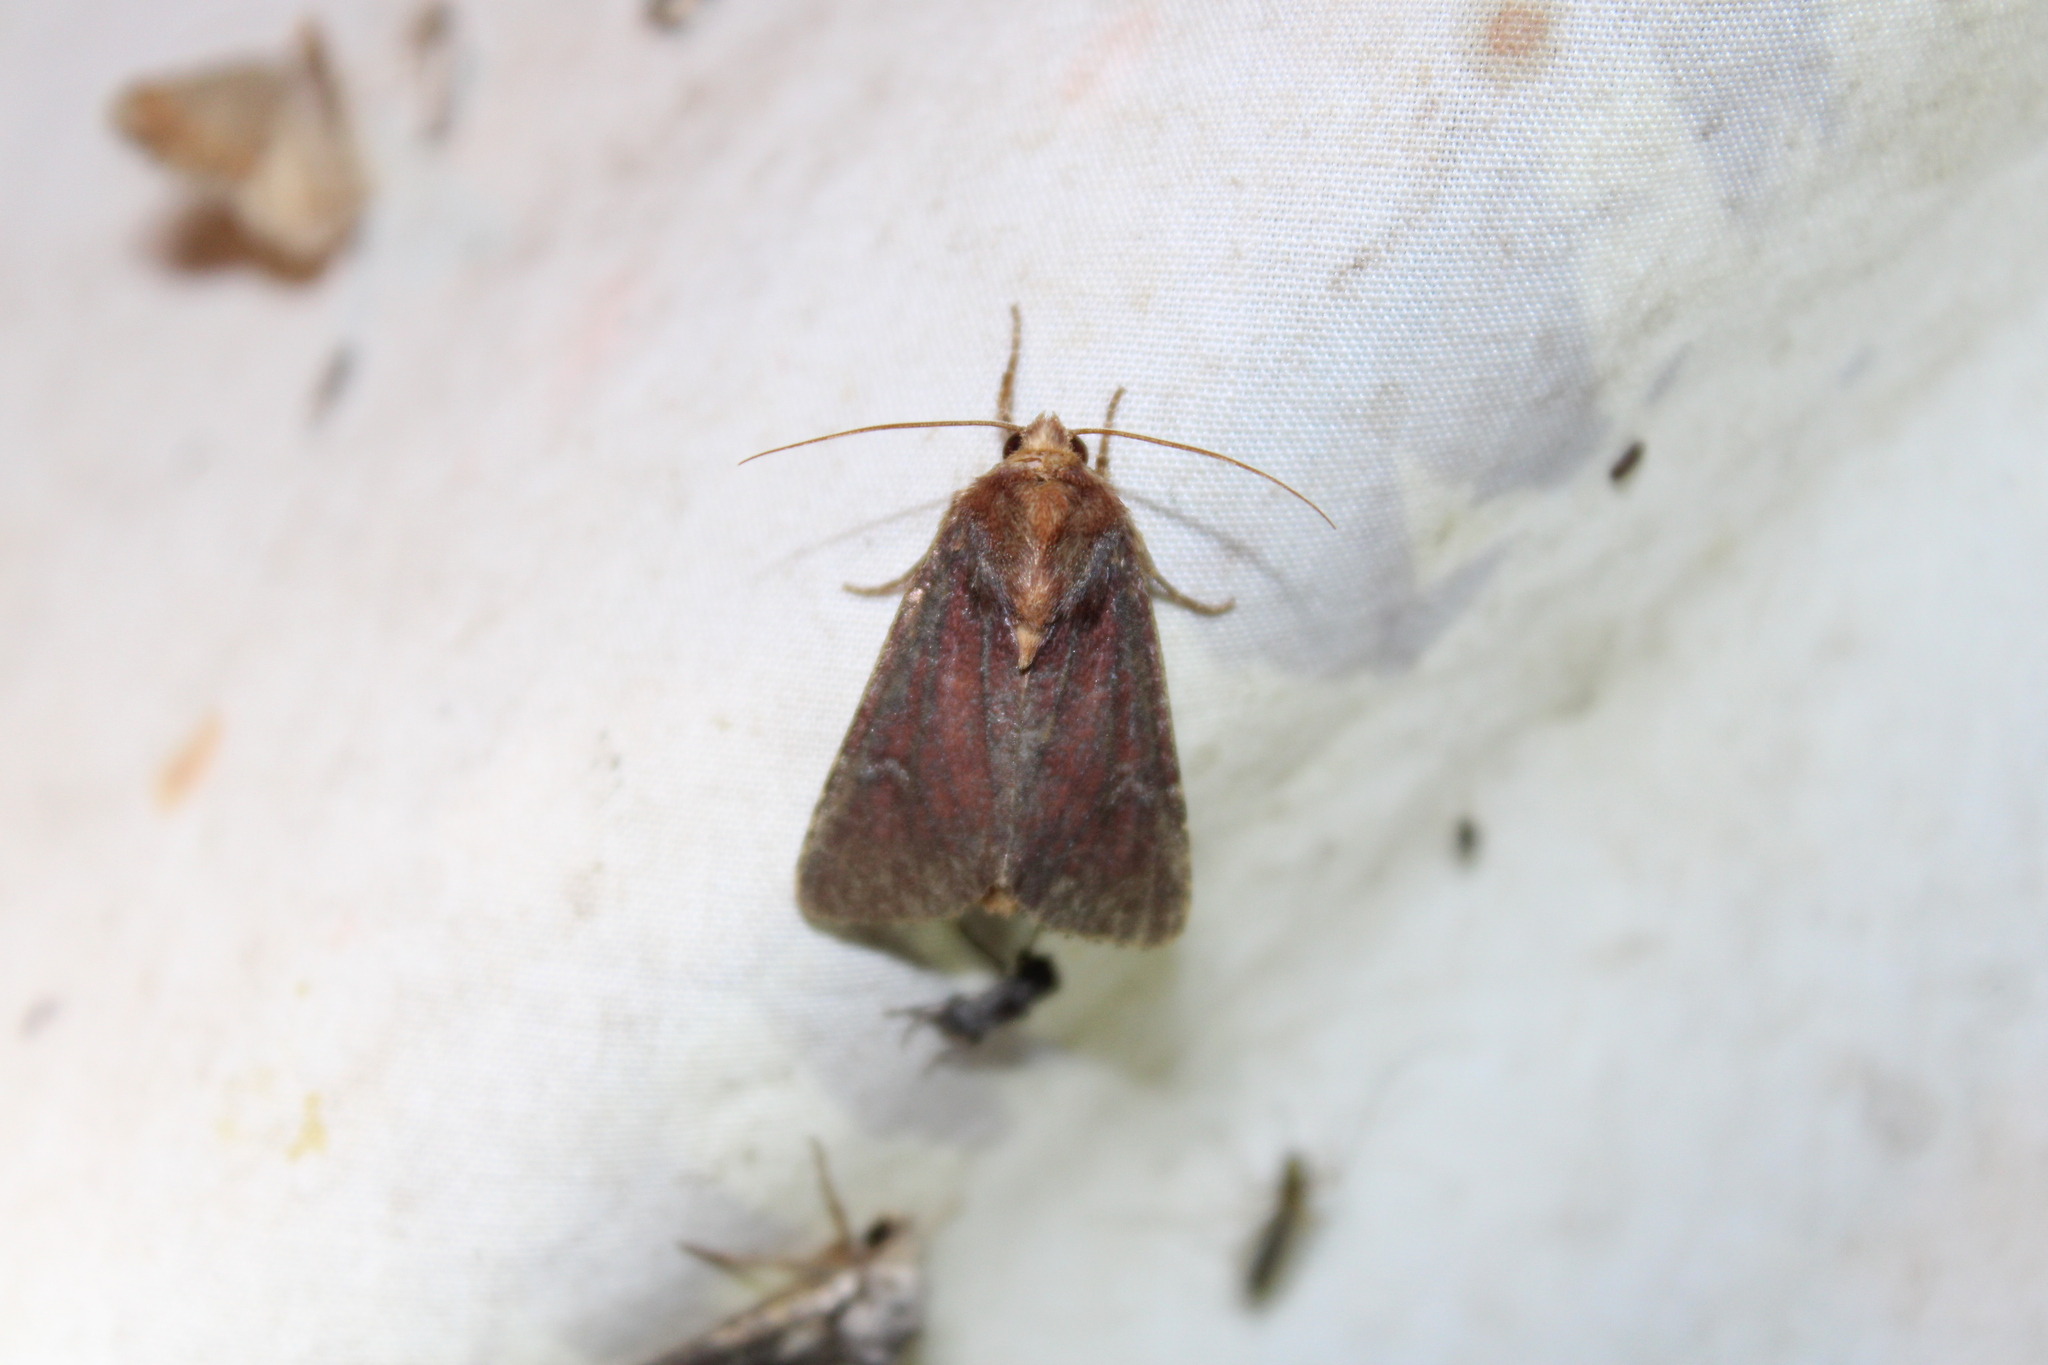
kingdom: Animalia
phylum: Arthropoda
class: Insecta
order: Lepidoptera
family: Noctuidae
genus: Sideridis
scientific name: Sideridis maryx
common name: Maroonwing moth
